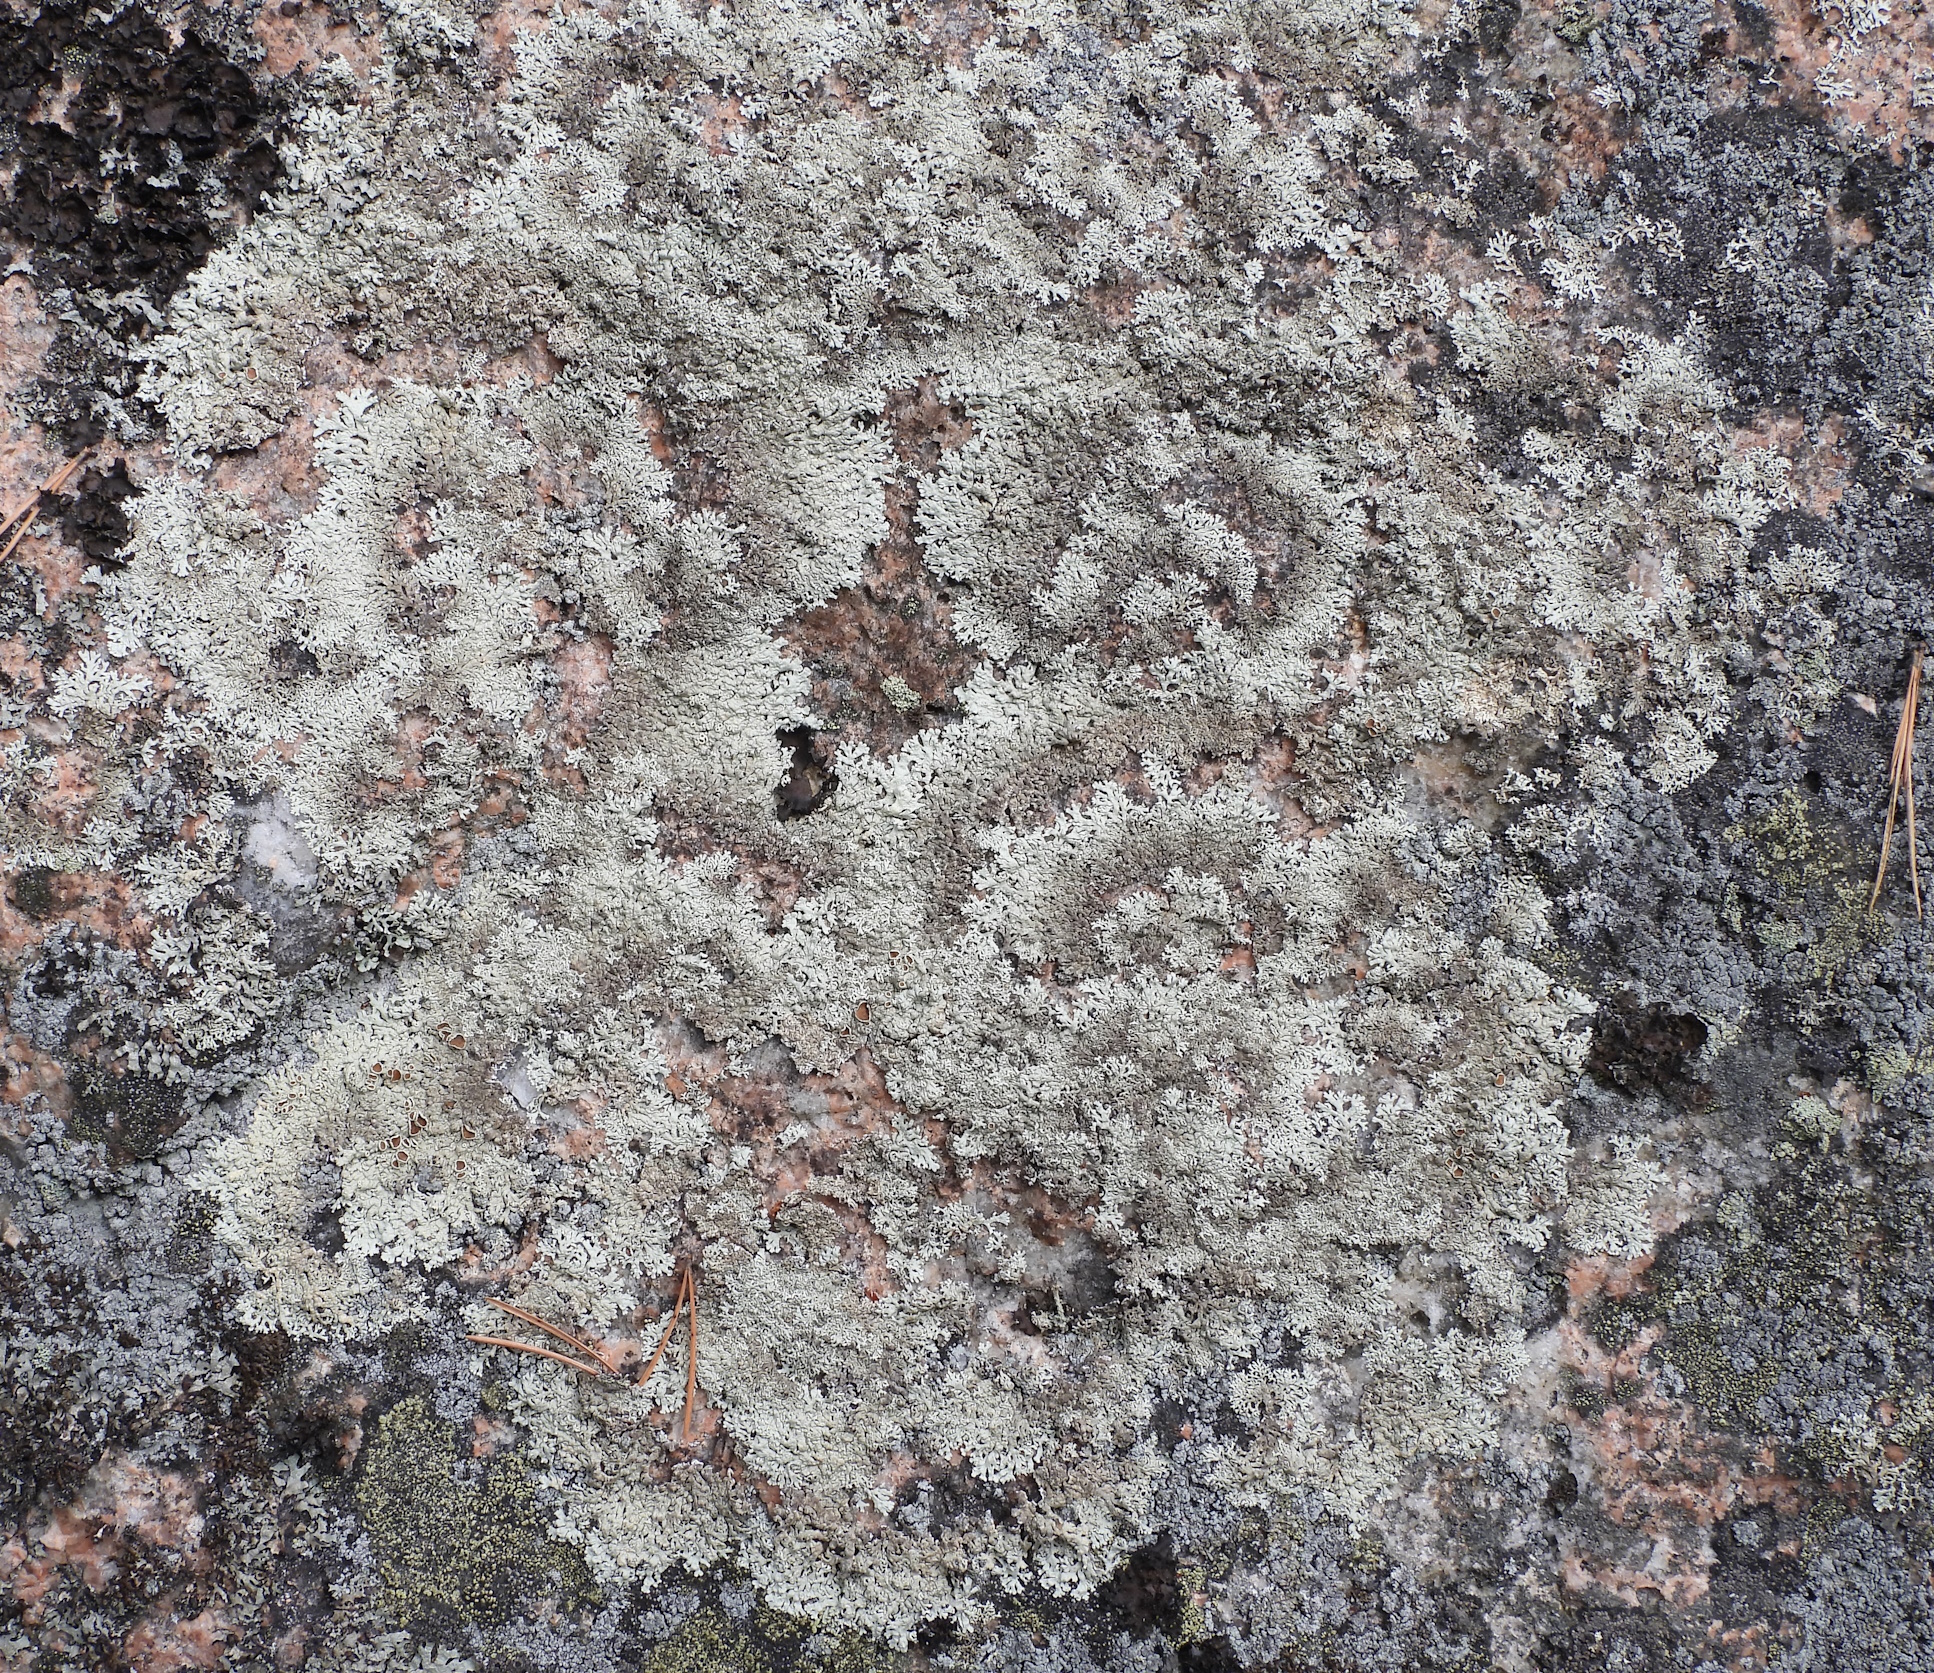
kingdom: Fungi
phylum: Ascomycota
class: Lecanoromycetes
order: Lecanorales
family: Parmeliaceae
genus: Arctoparmelia
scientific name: Arctoparmelia centrifuga
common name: Concentric ring lichen
